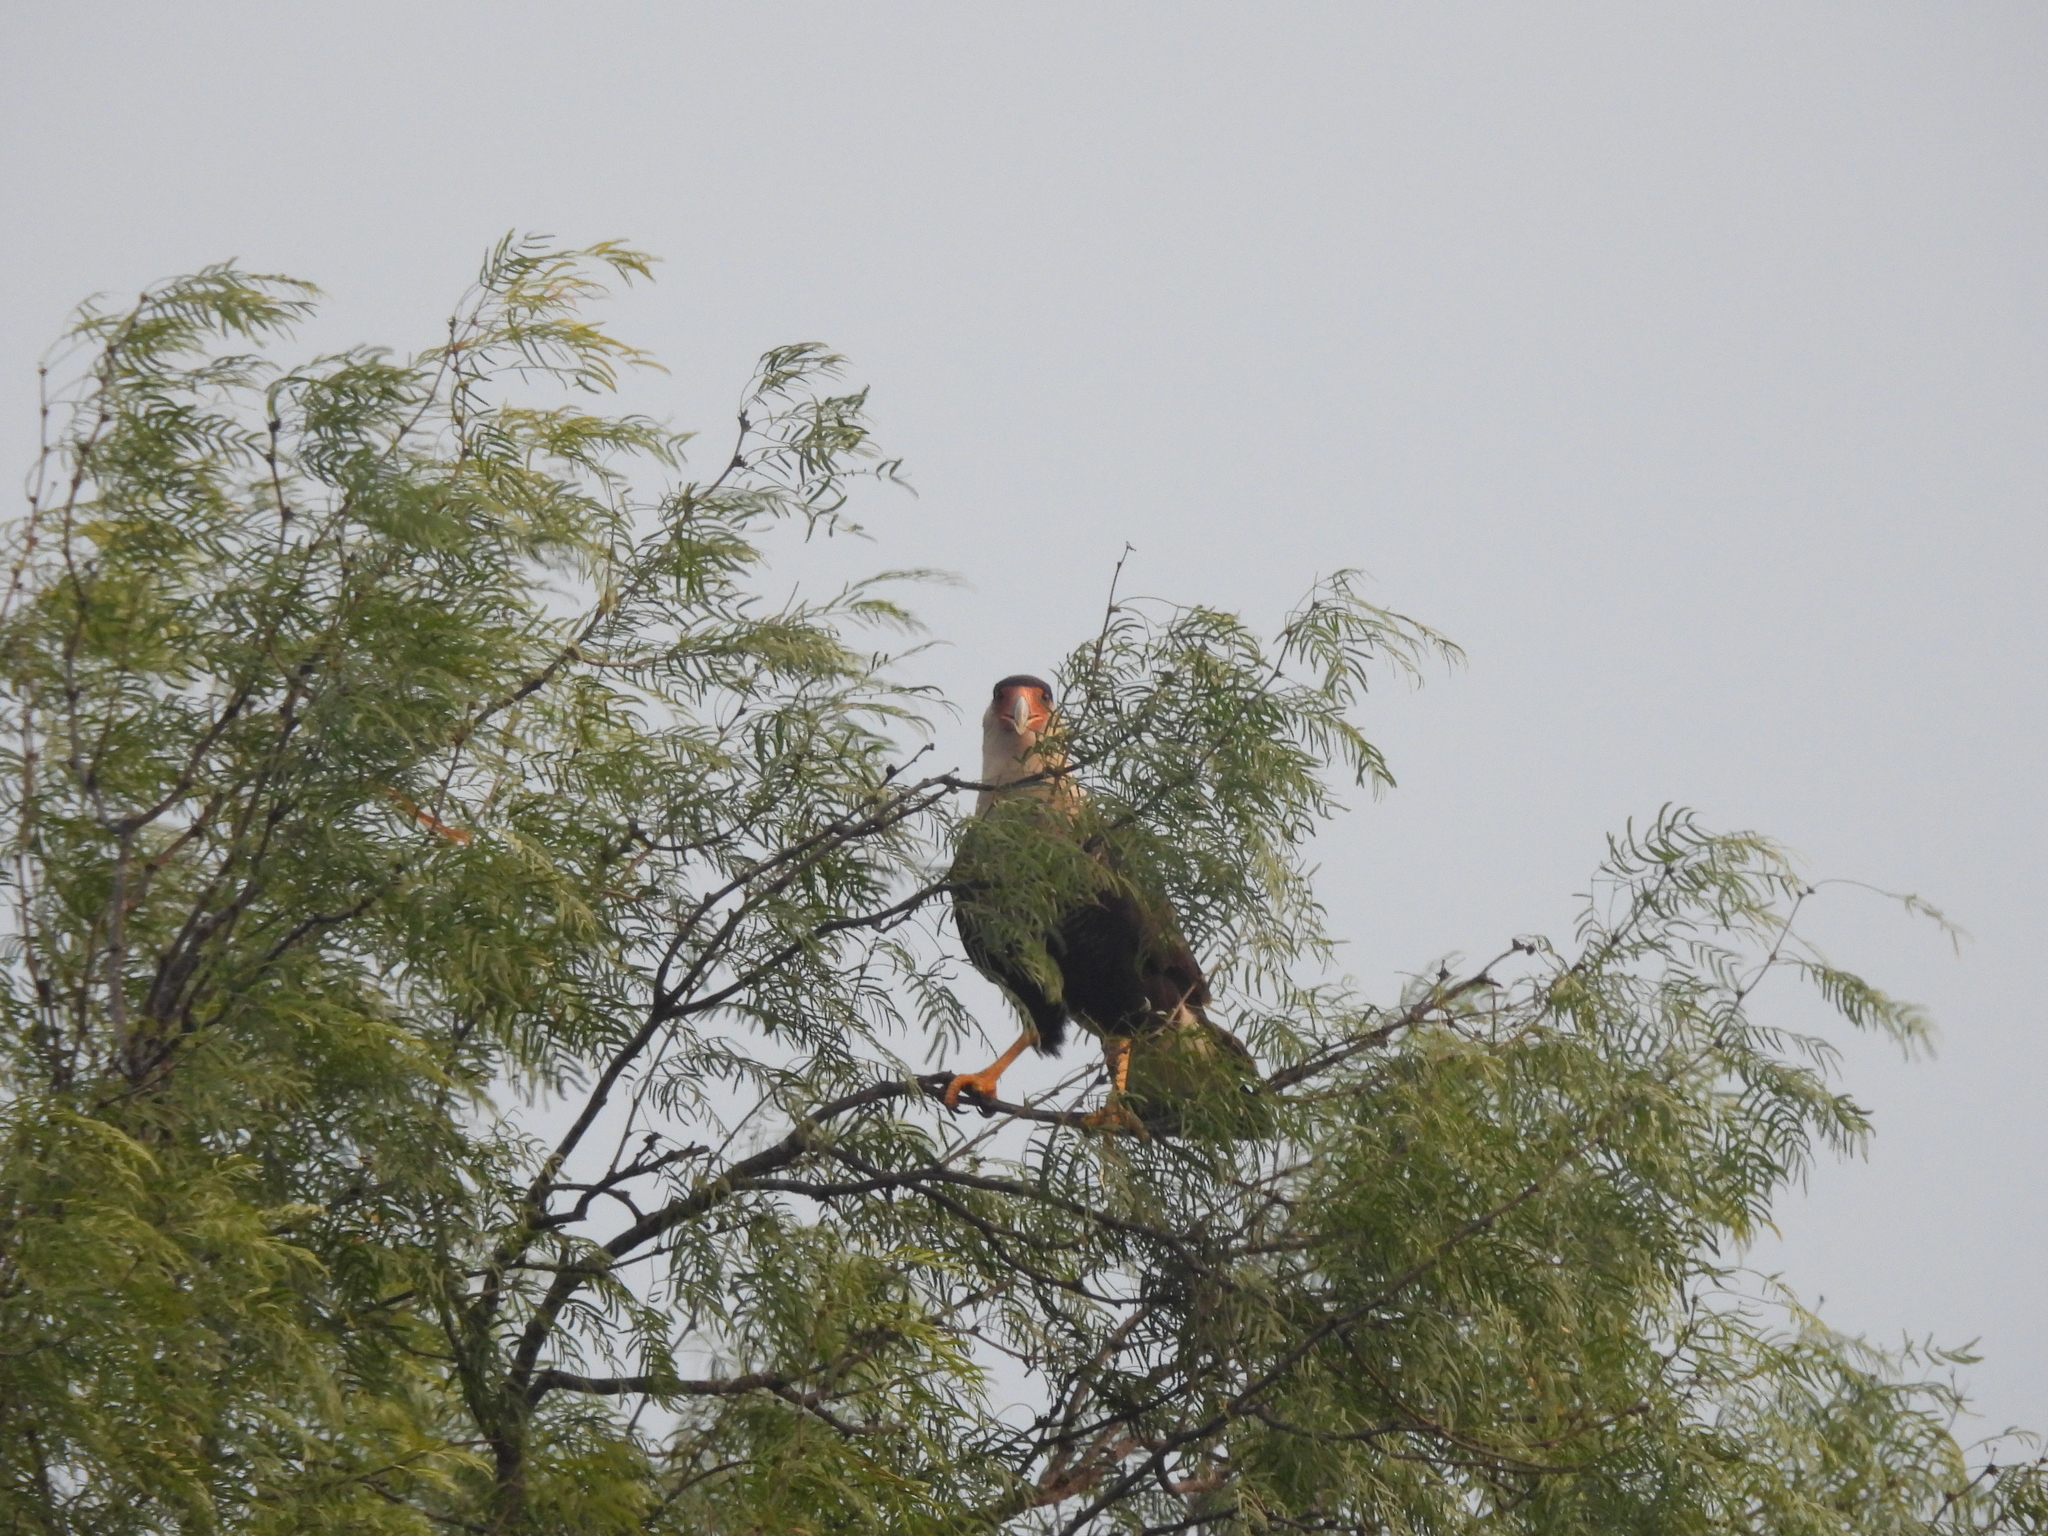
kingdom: Animalia
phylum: Chordata
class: Aves
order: Falconiformes
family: Falconidae
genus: Caracara
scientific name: Caracara plancus
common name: Southern caracara
